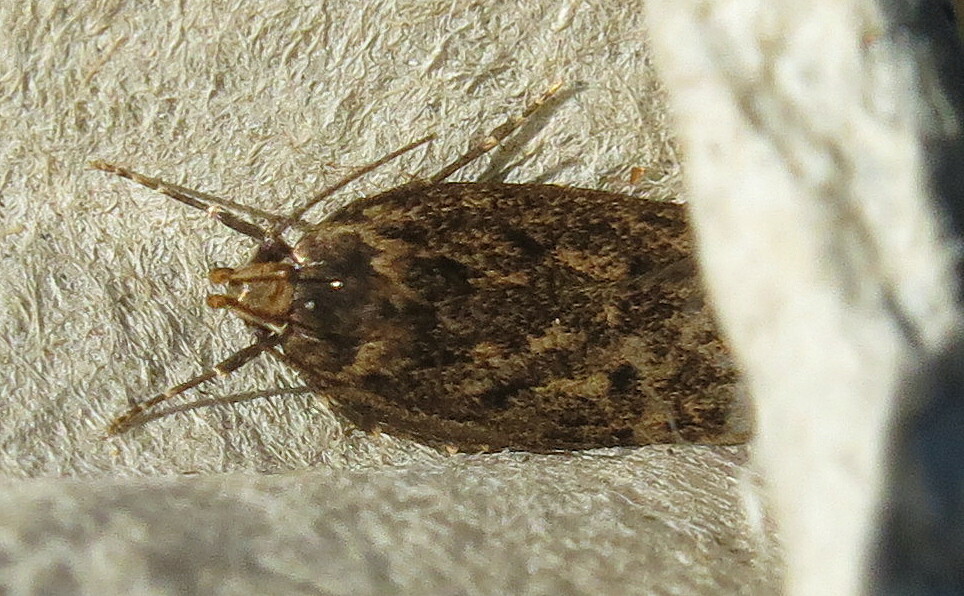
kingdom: Animalia
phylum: Arthropoda
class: Insecta
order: Lepidoptera
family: Oecophoridae
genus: Hofmannophila
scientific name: Hofmannophila pseudospretella
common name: Brown house moth
